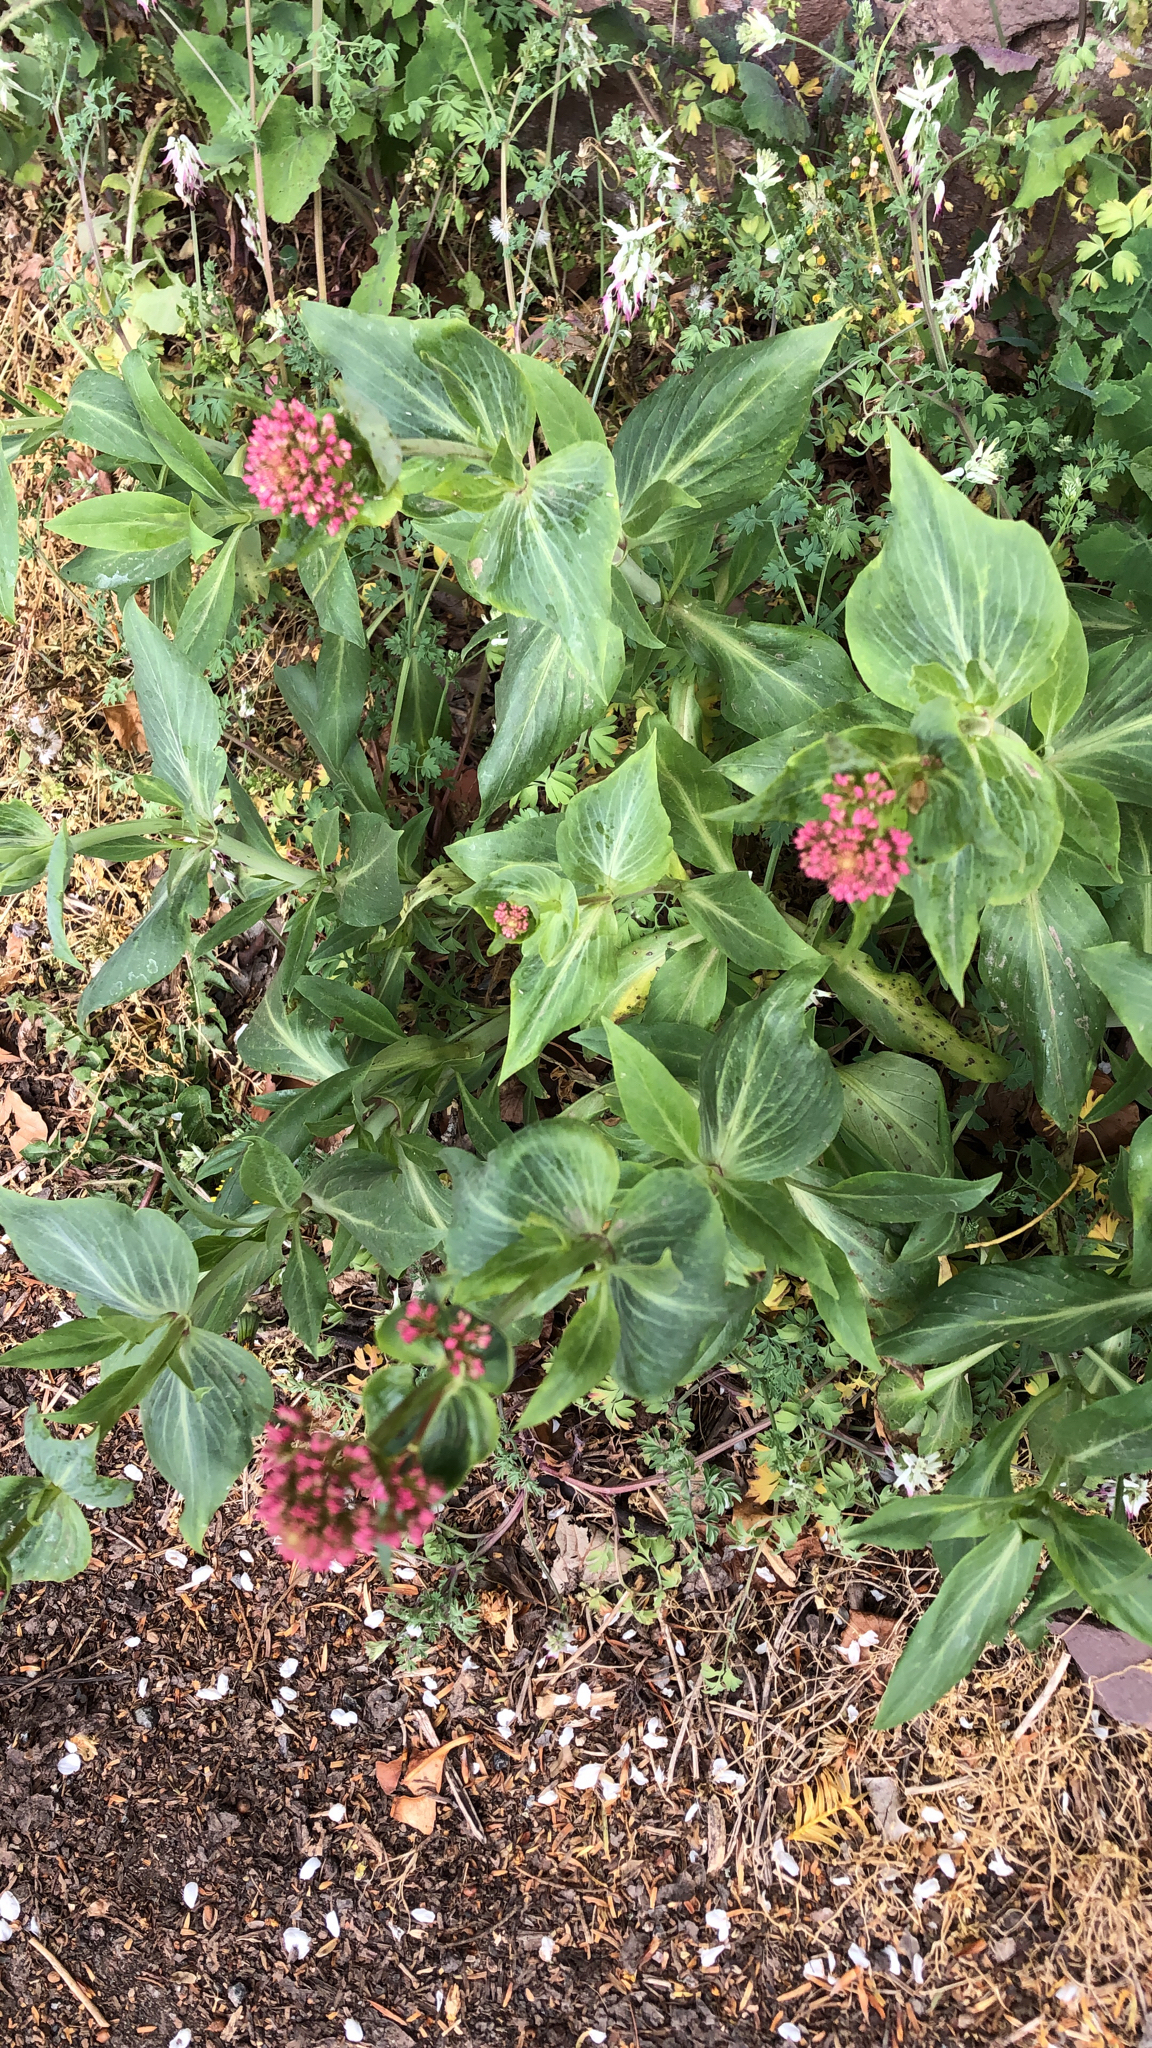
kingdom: Plantae
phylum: Tracheophyta
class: Magnoliopsida
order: Dipsacales
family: Caprifoliaceae
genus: Centranthus
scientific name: Centranthus ruber
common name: Red valerian
